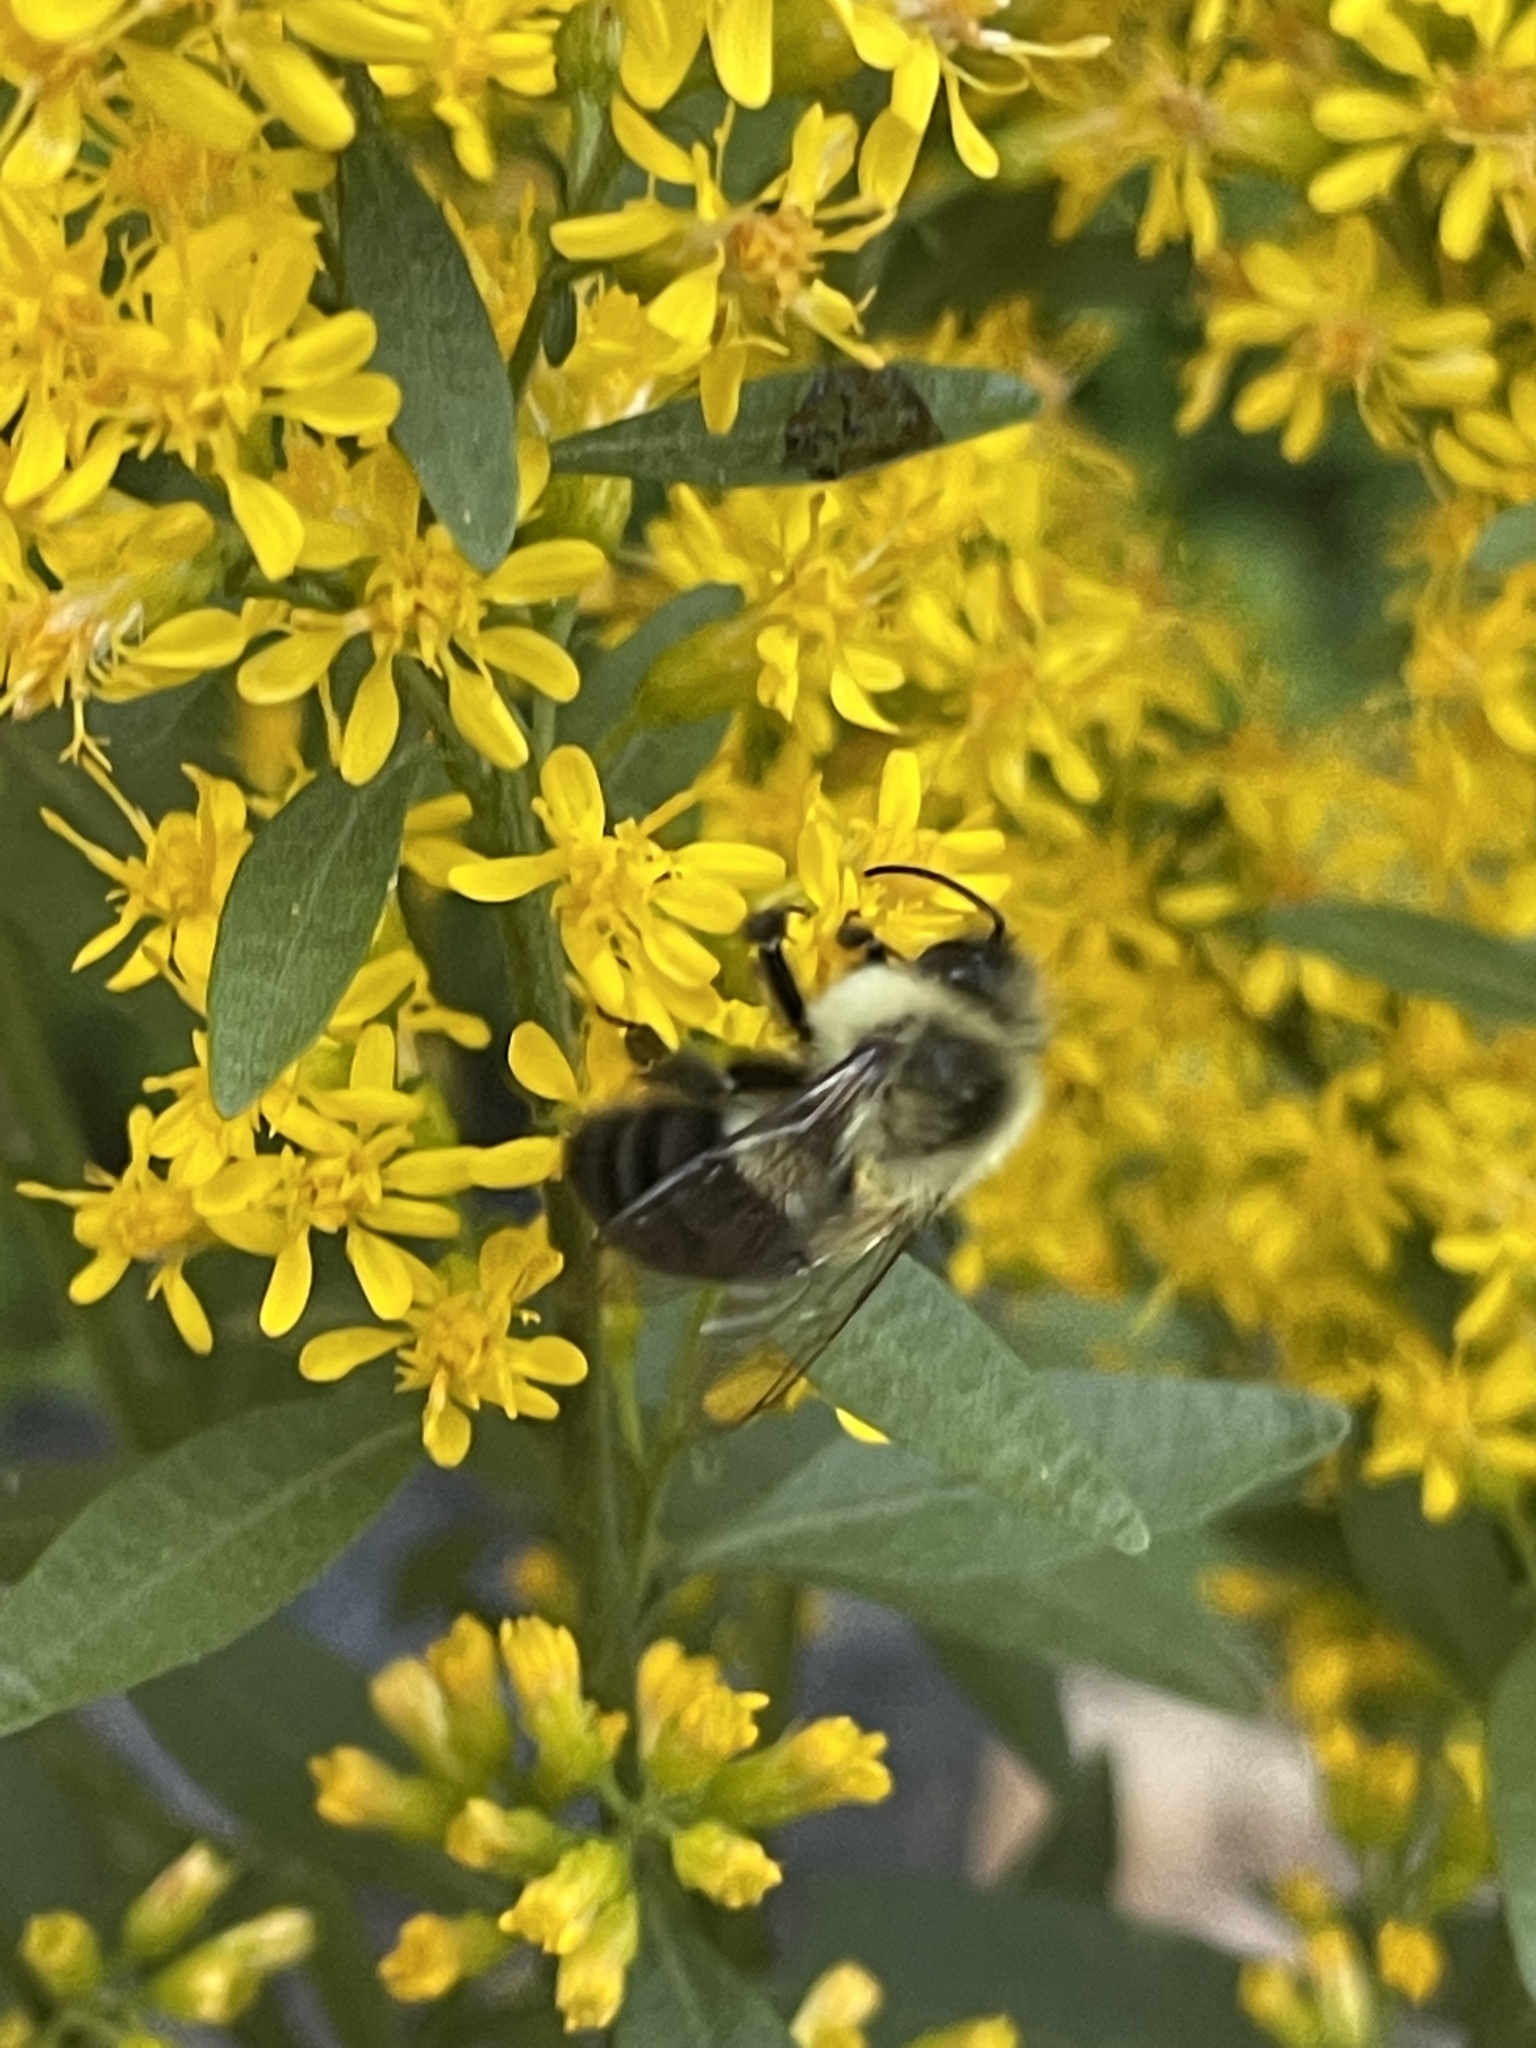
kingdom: Animalia
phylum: Arthropoda
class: Insecta
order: Hymenoptera
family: Apidae
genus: Bombus
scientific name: Bombus impatiens
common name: Common eastern bumble bee
